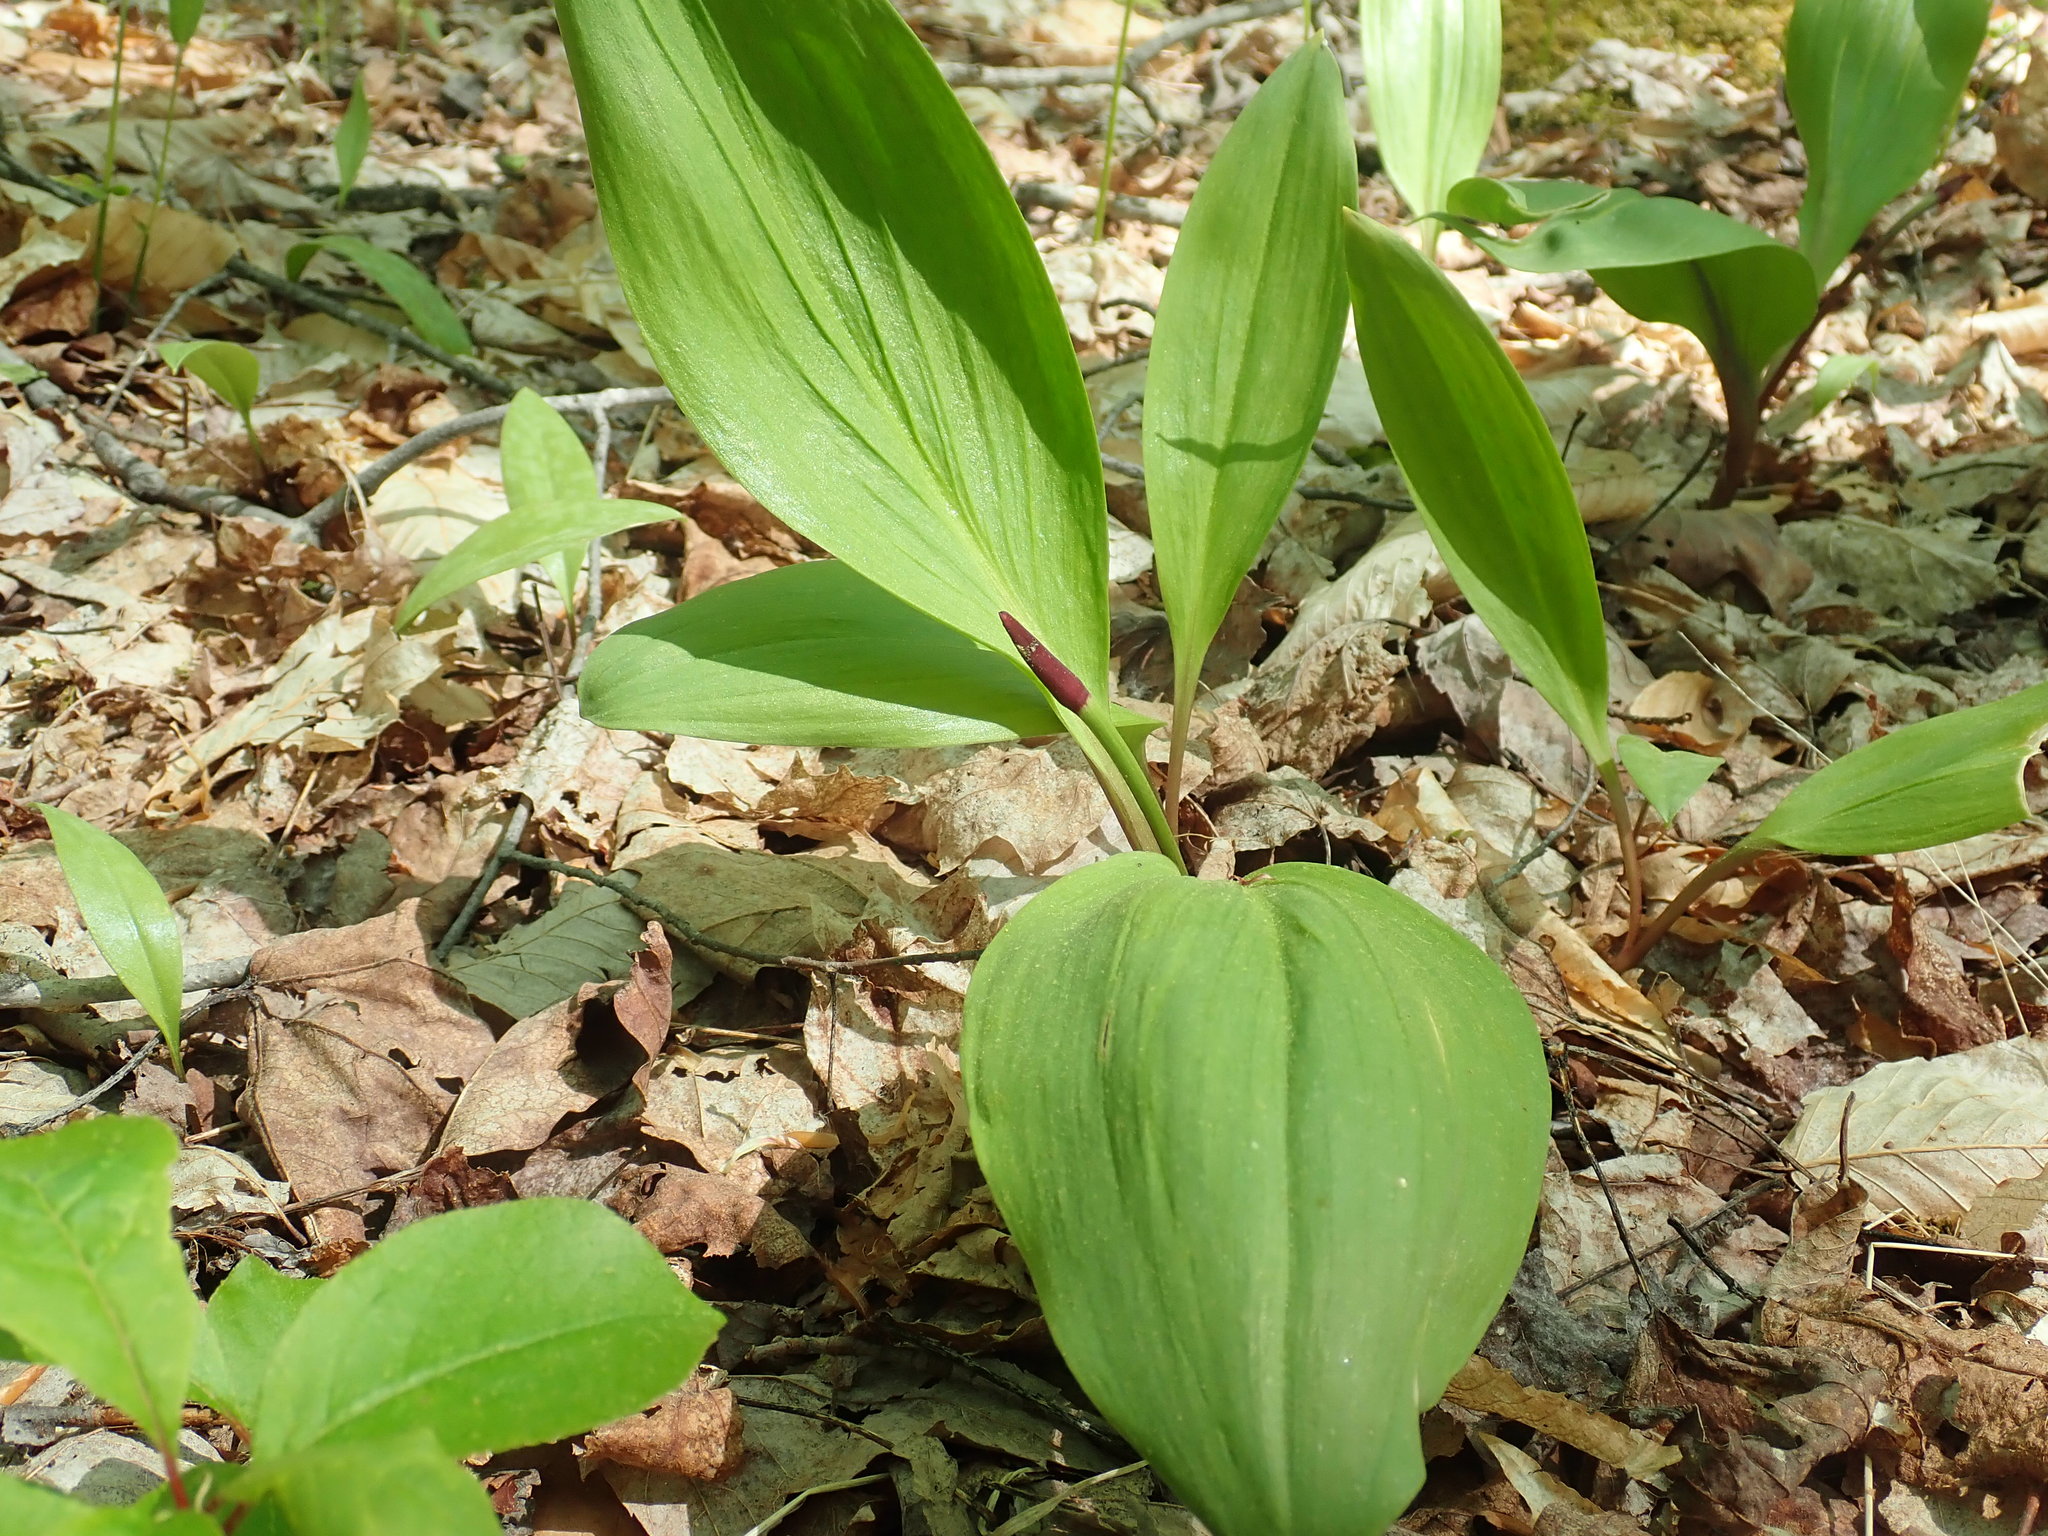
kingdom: Plantae
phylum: Tracheophyta
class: Liliopsida
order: Asparagales
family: Amaryllidaceae
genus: Allium
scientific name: Allium tricoccum
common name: Ramp
